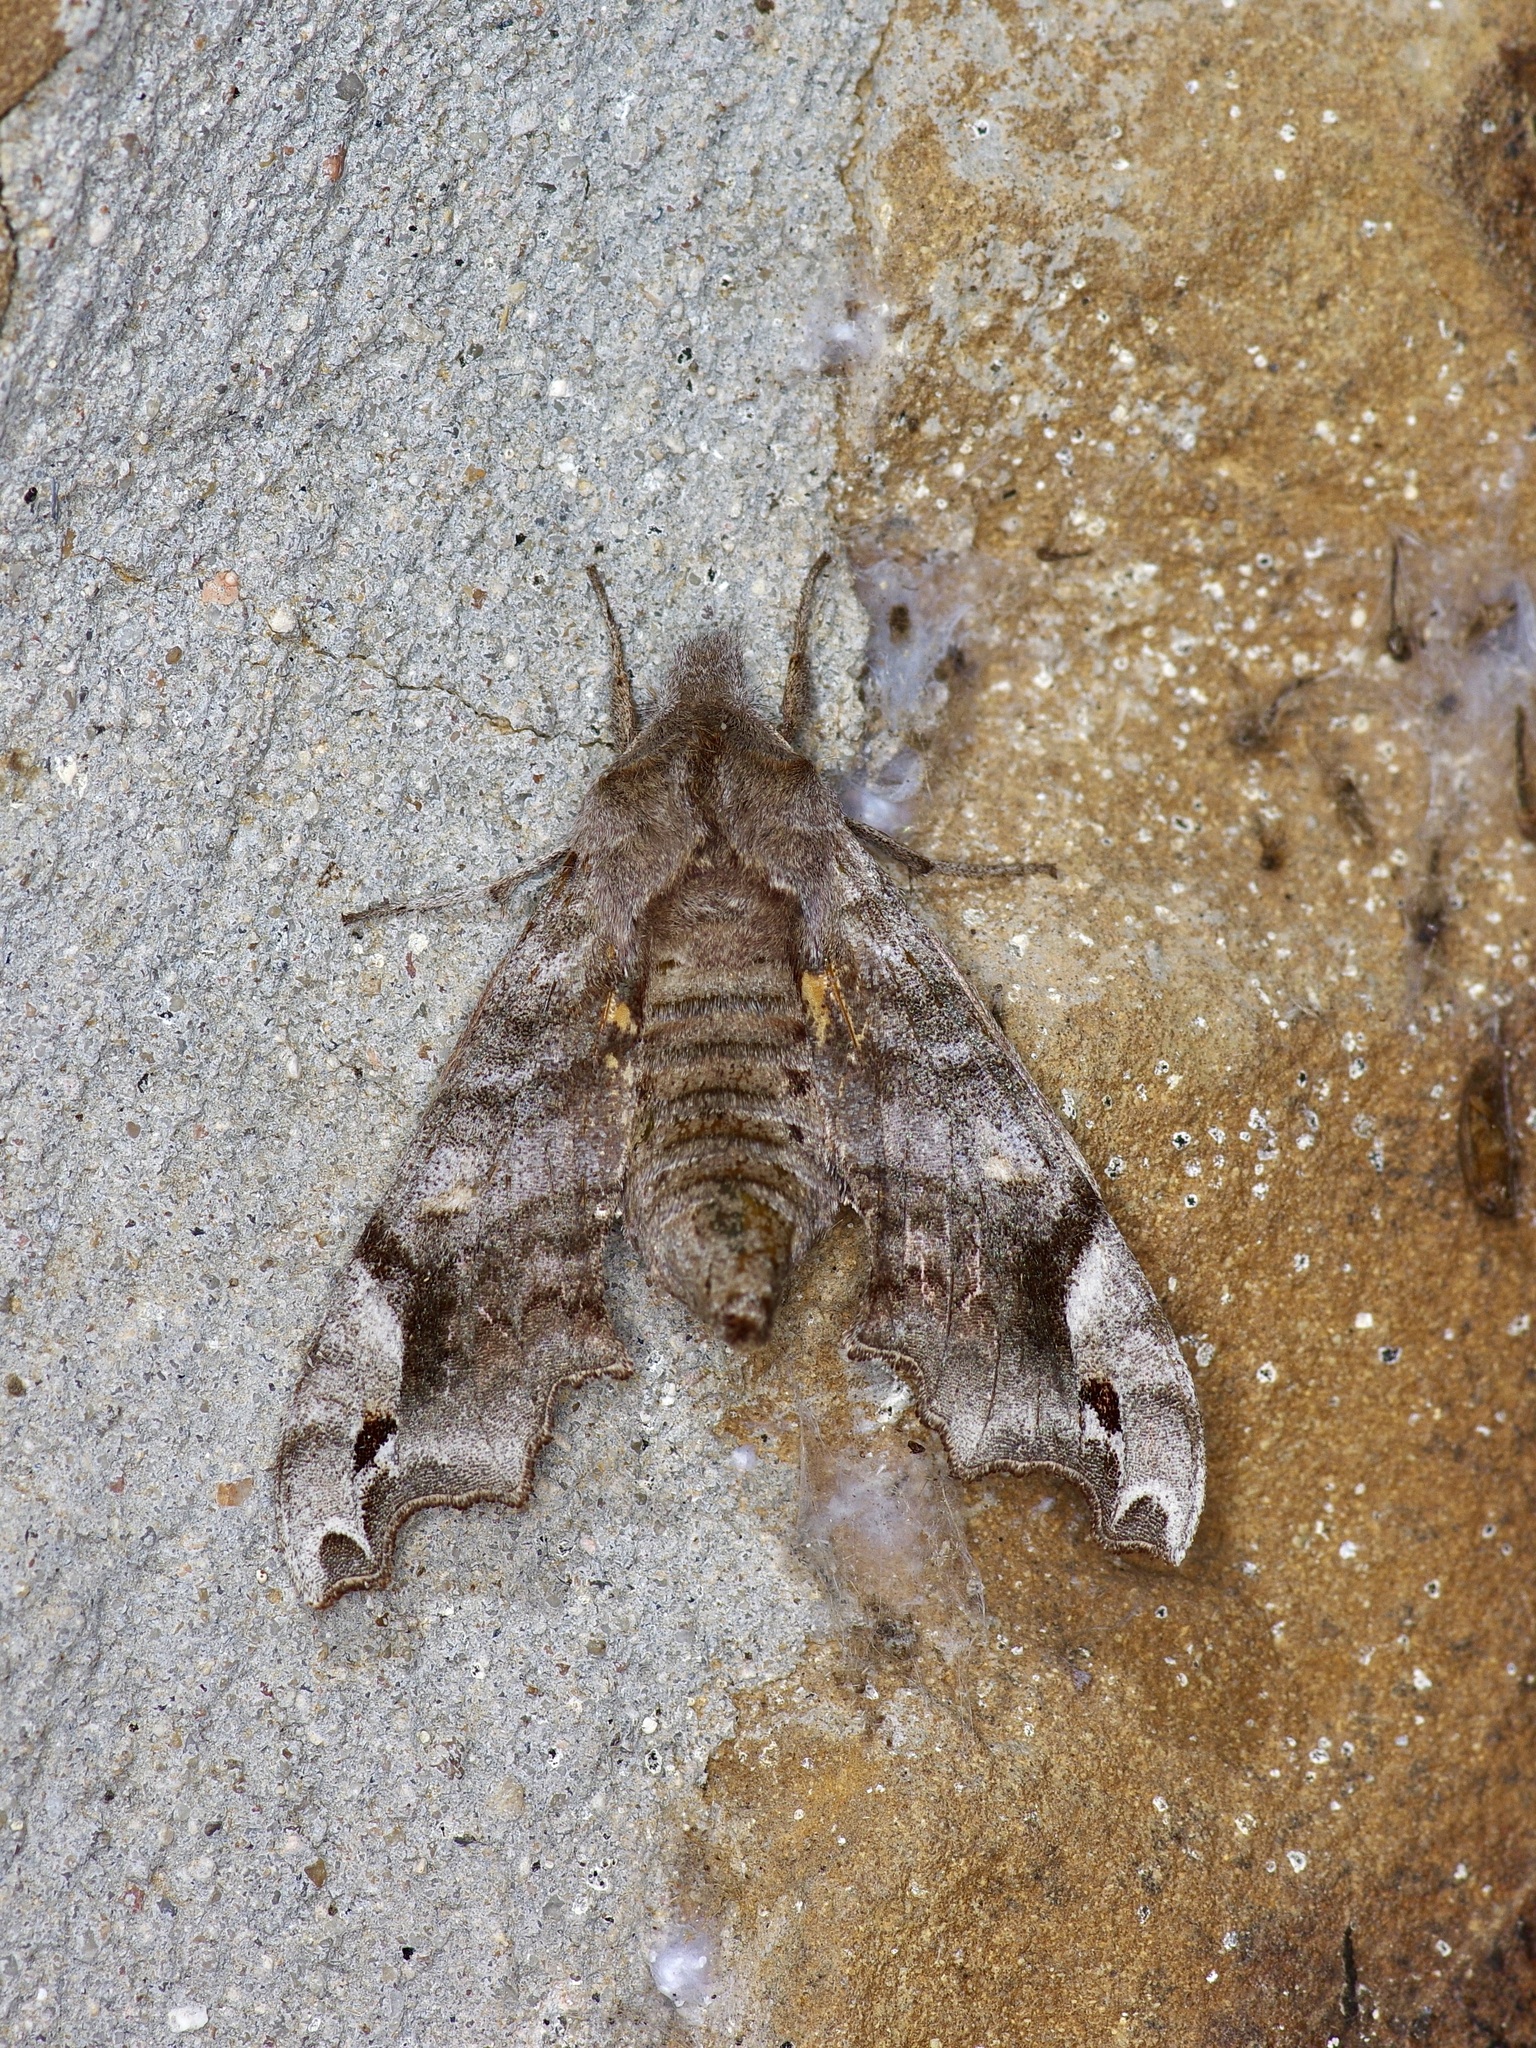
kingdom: Animalia
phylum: Arthropoda
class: Insecta
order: Lepidoptera
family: Sphingidae
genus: Deidamia
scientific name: Deidamia inscriptum
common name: Lettered sphinx
